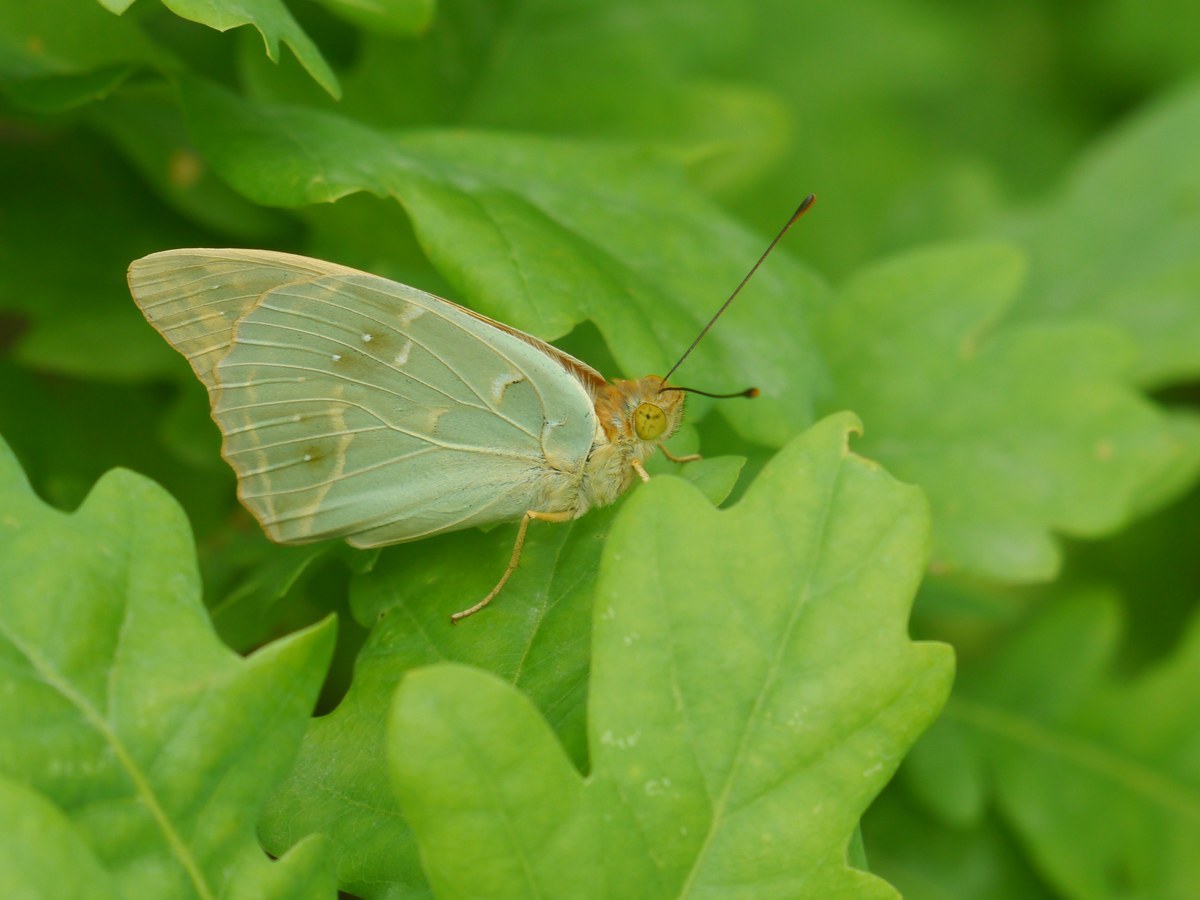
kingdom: Animalia
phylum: Arthropoda
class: Insecta
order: Lepidoptera
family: Nymphalidae
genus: Damora
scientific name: Damora pandora
